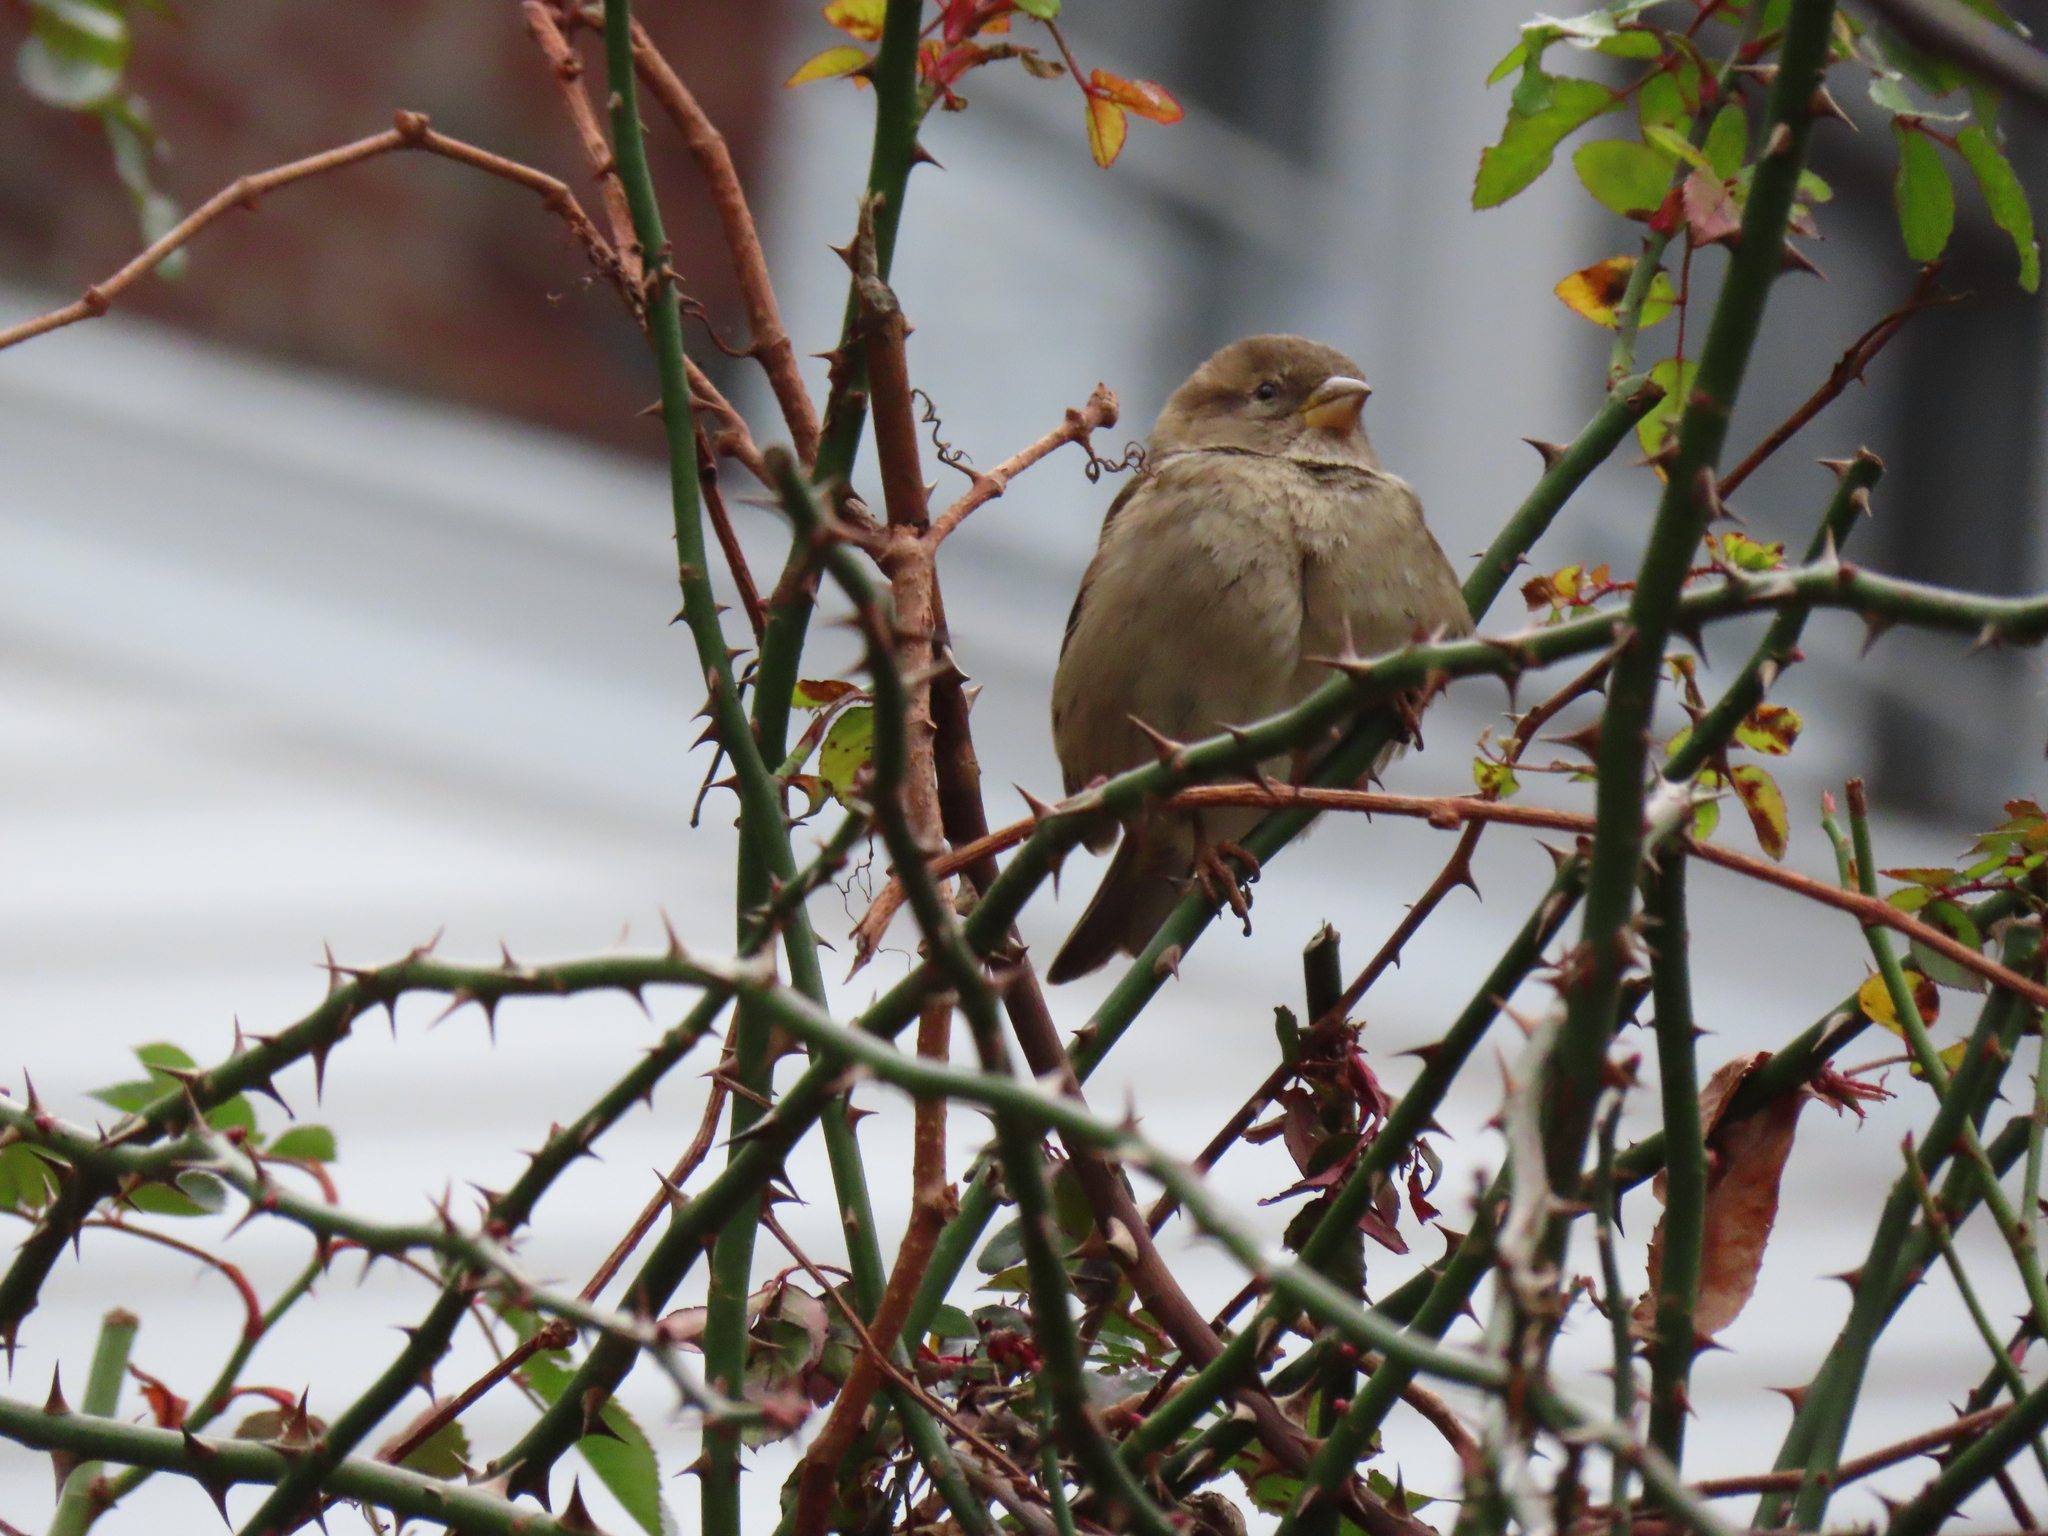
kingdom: Animalia
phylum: Chordata
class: Aves
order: Passeriformes
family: Passeridae
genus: Passer
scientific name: Passer domesticus
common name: House sparrow
